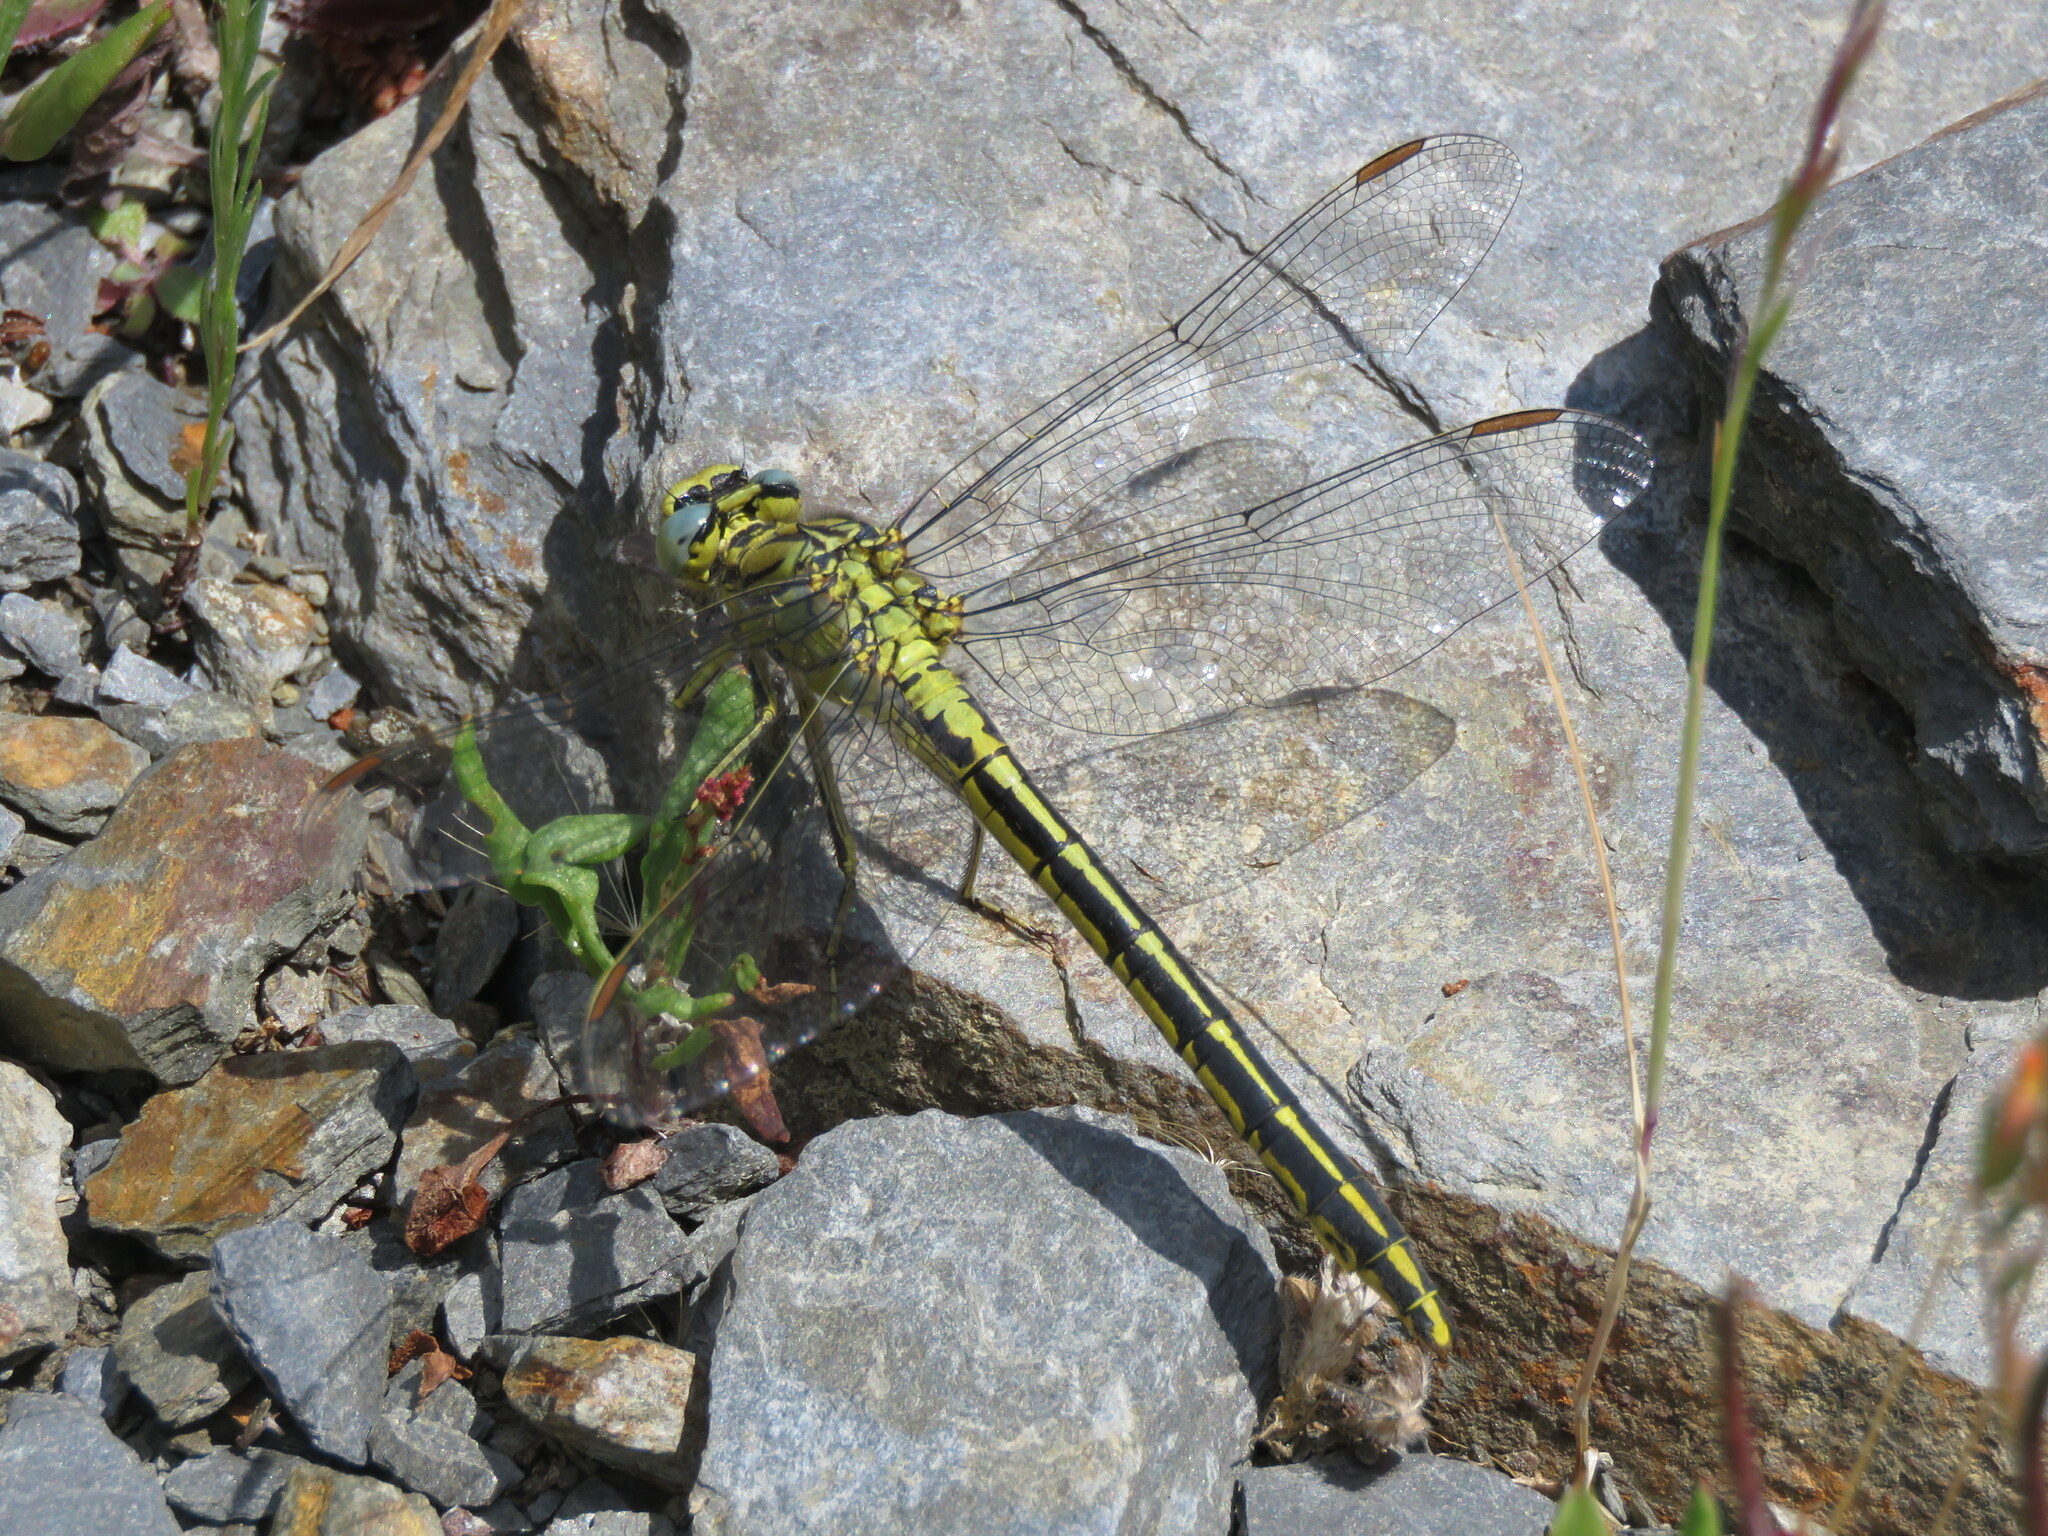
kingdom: Animalia
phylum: Arthropoda
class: Insecta
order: Odonata
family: Gomphidae
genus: Gomphus
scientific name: Gomphus pulchellus
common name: Western clubtail
